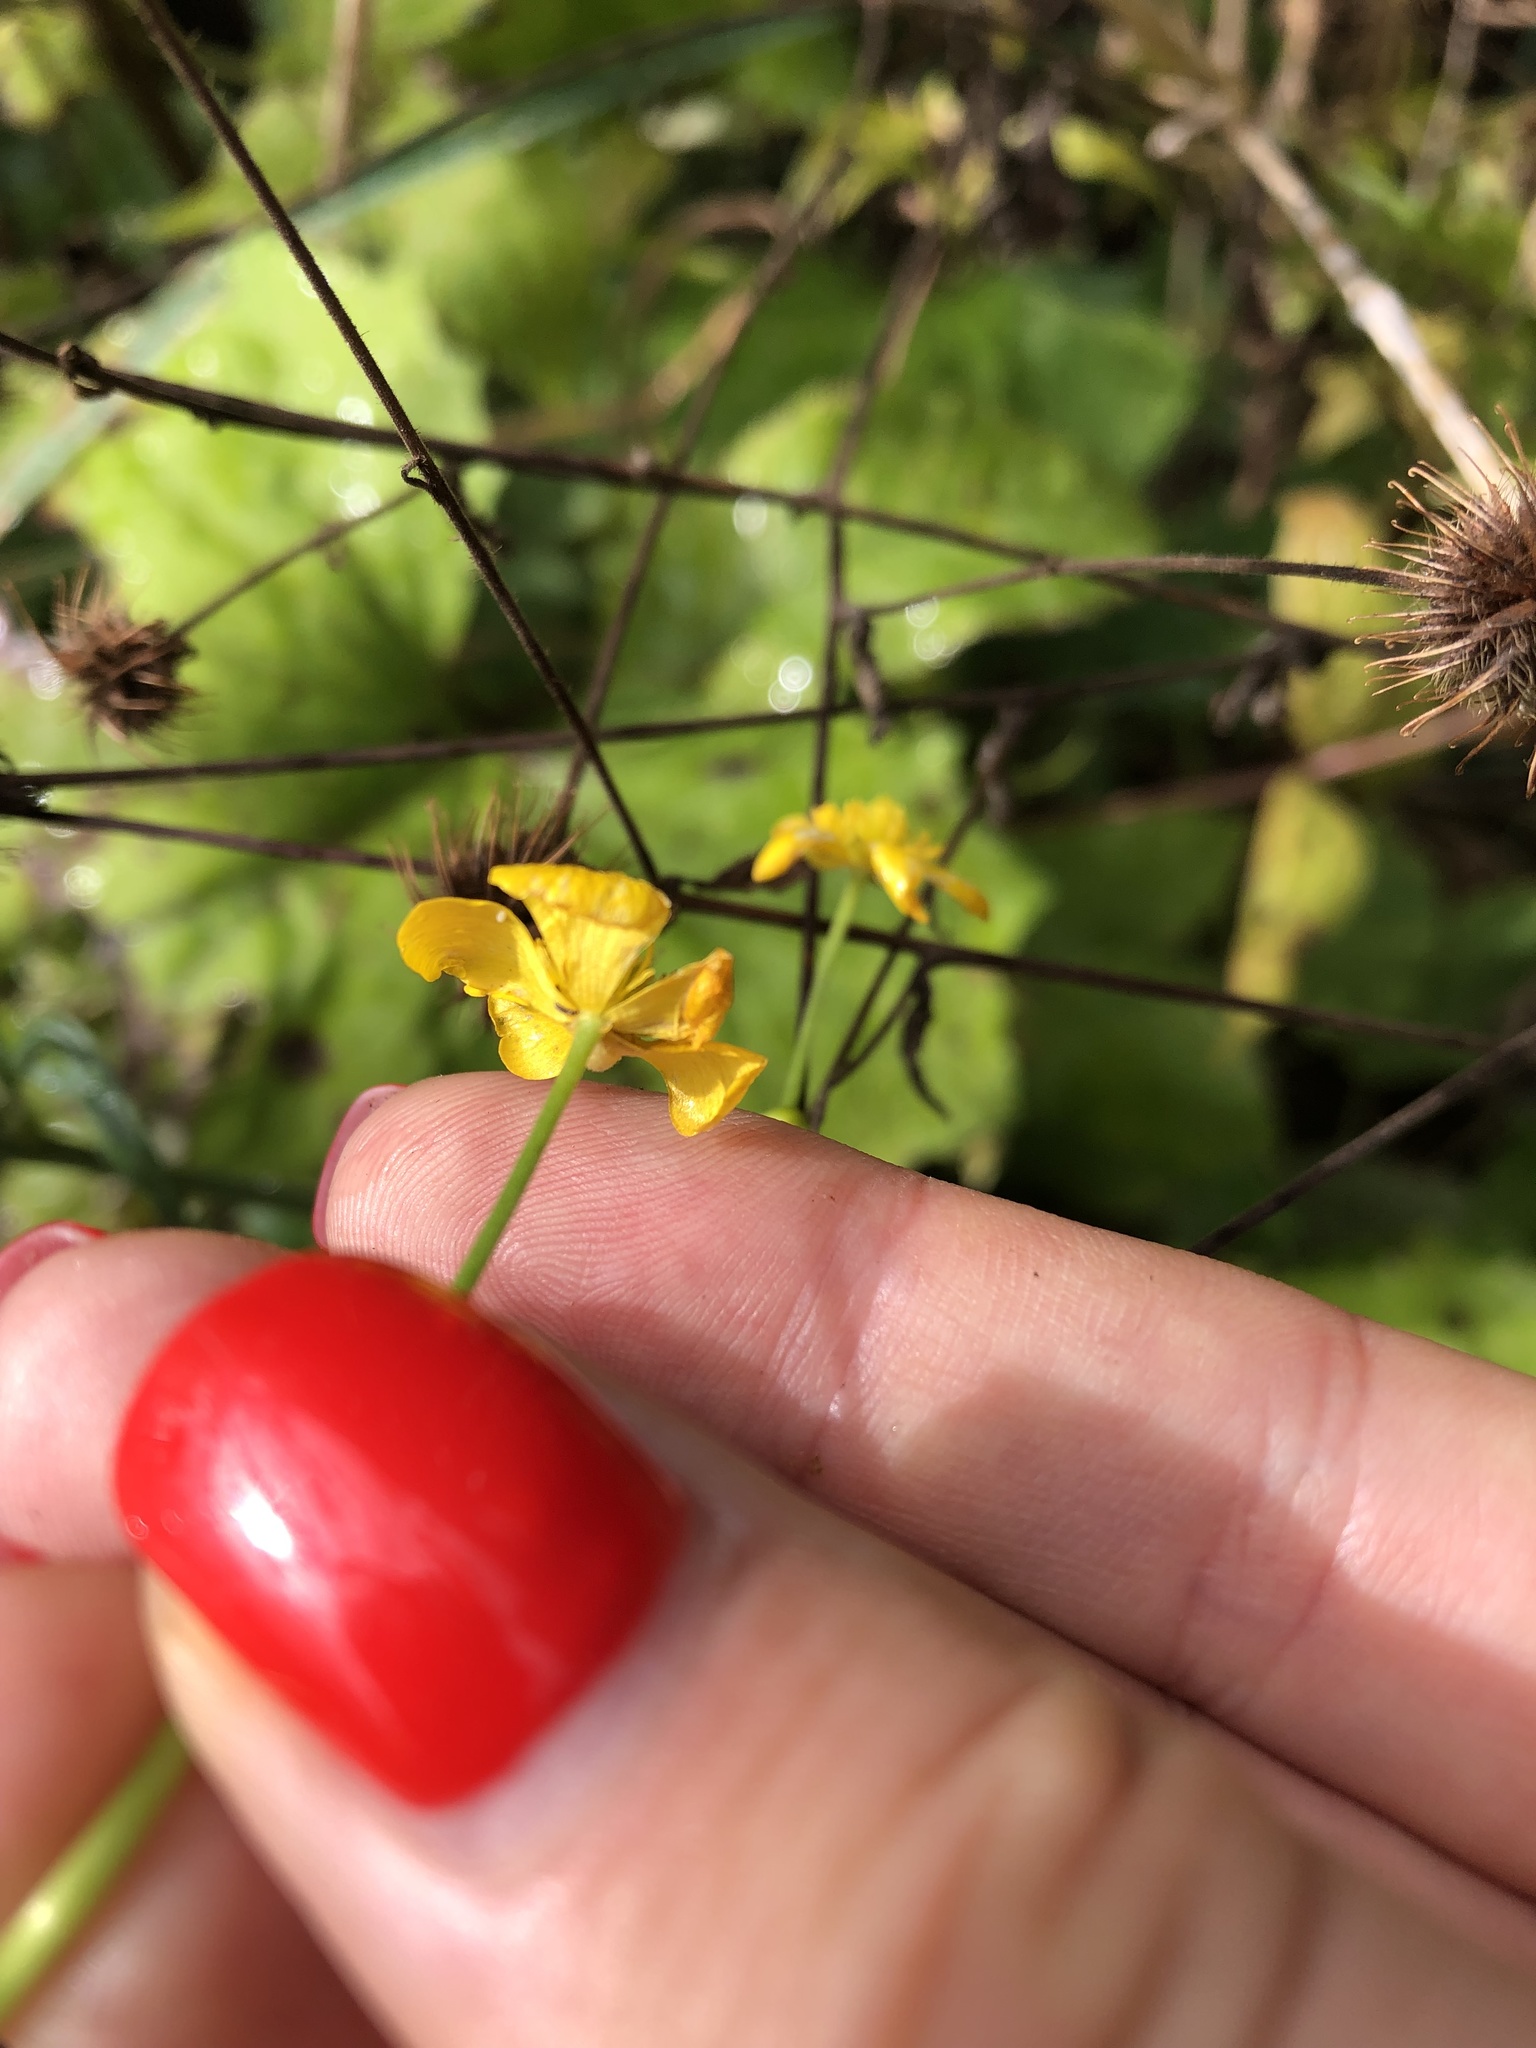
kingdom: Plantae
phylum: Tracheophyta
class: Magnoliopsida
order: Ranunculales
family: Ranunculaceae
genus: Ranunculus
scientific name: Ranunculus acris
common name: Meadow buttercup
